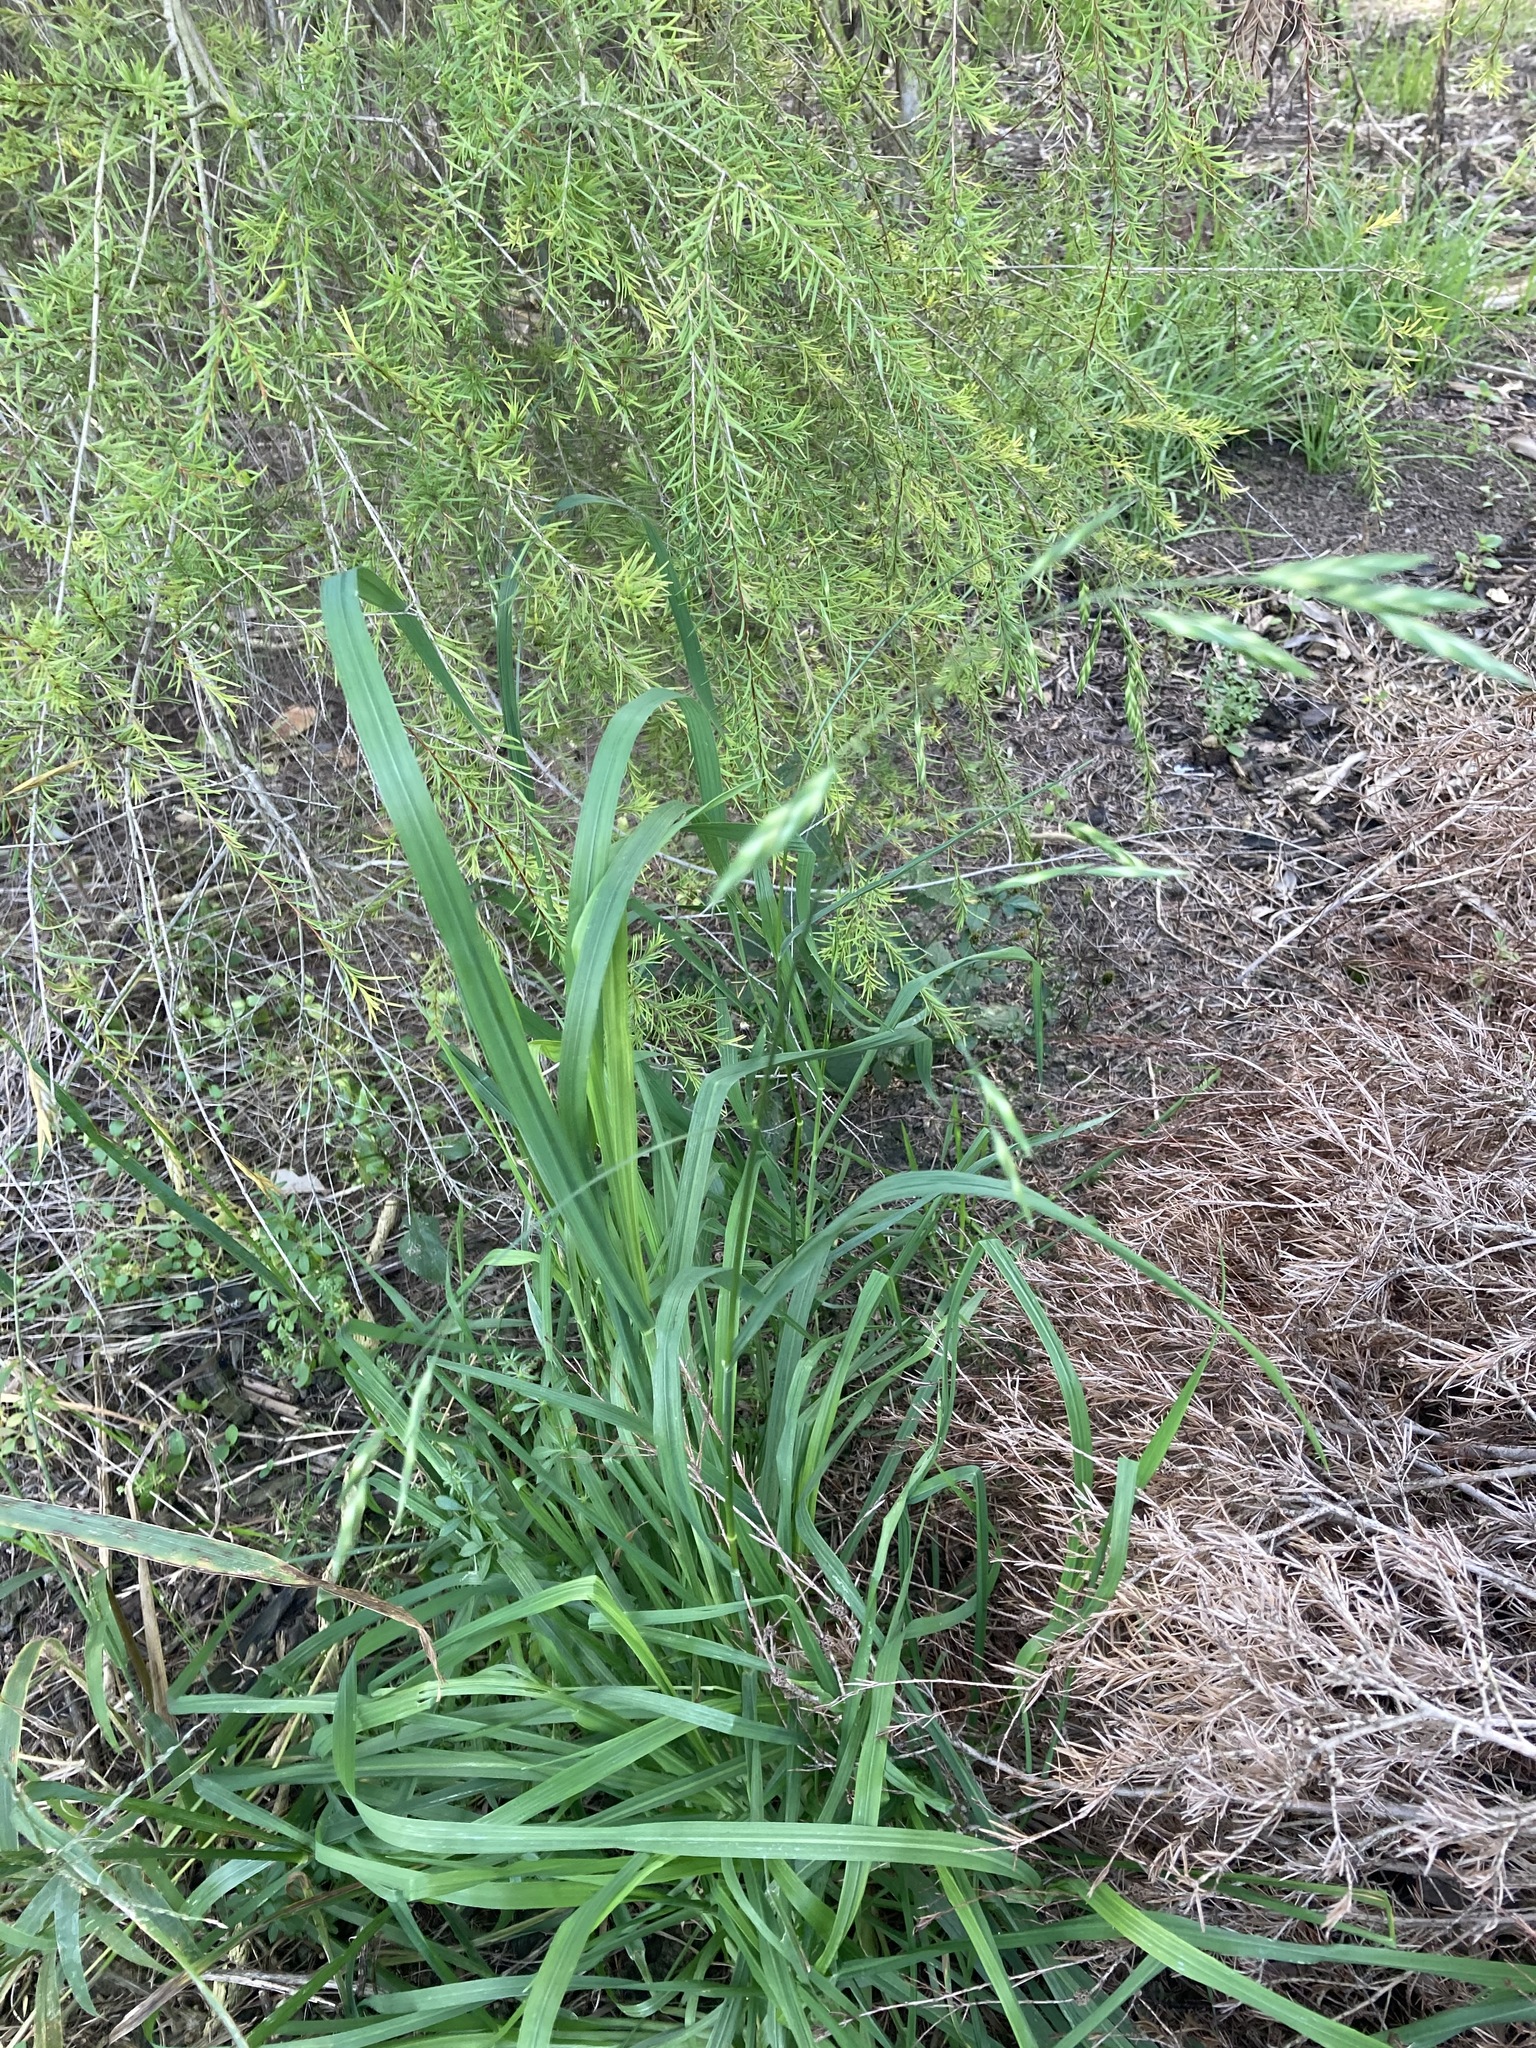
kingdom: Plantae
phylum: Tracheophyta
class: Liliopsida
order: Poales
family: Poaceae
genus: Bromus
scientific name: Bromus catharticus
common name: Rescuegrass
